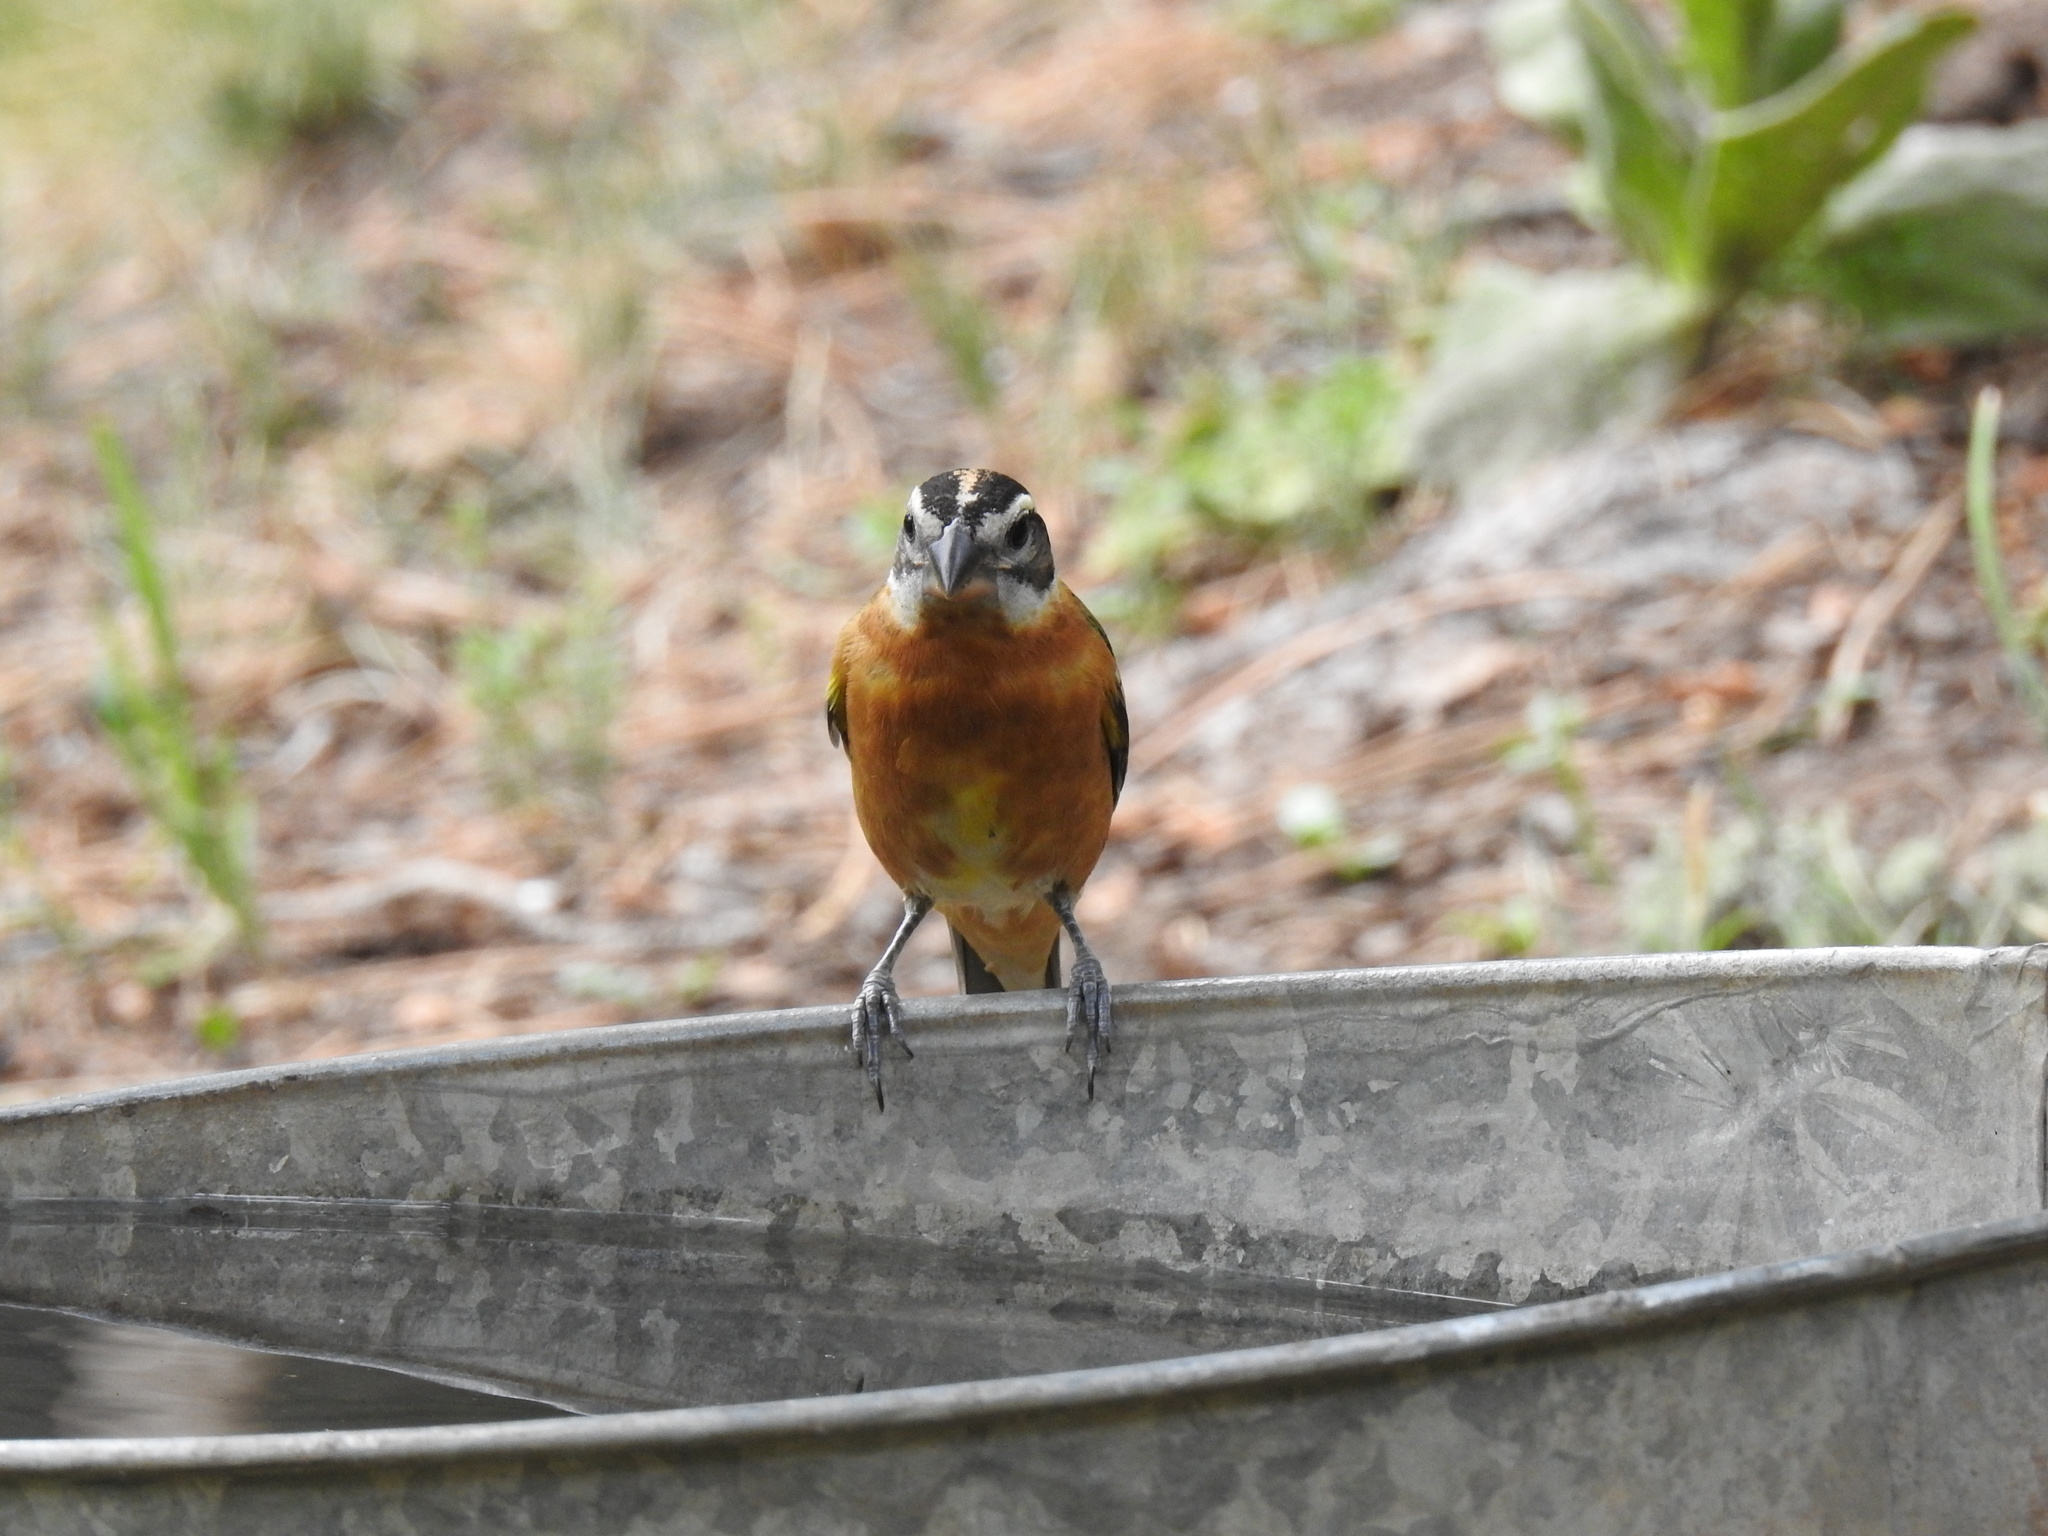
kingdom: Animalia
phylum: Chordata
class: Aves
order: Passeriformes
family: Cardinalidae
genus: Pheucticus
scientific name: Pheucticus melanocephalus
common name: Black-headed grosbeak
